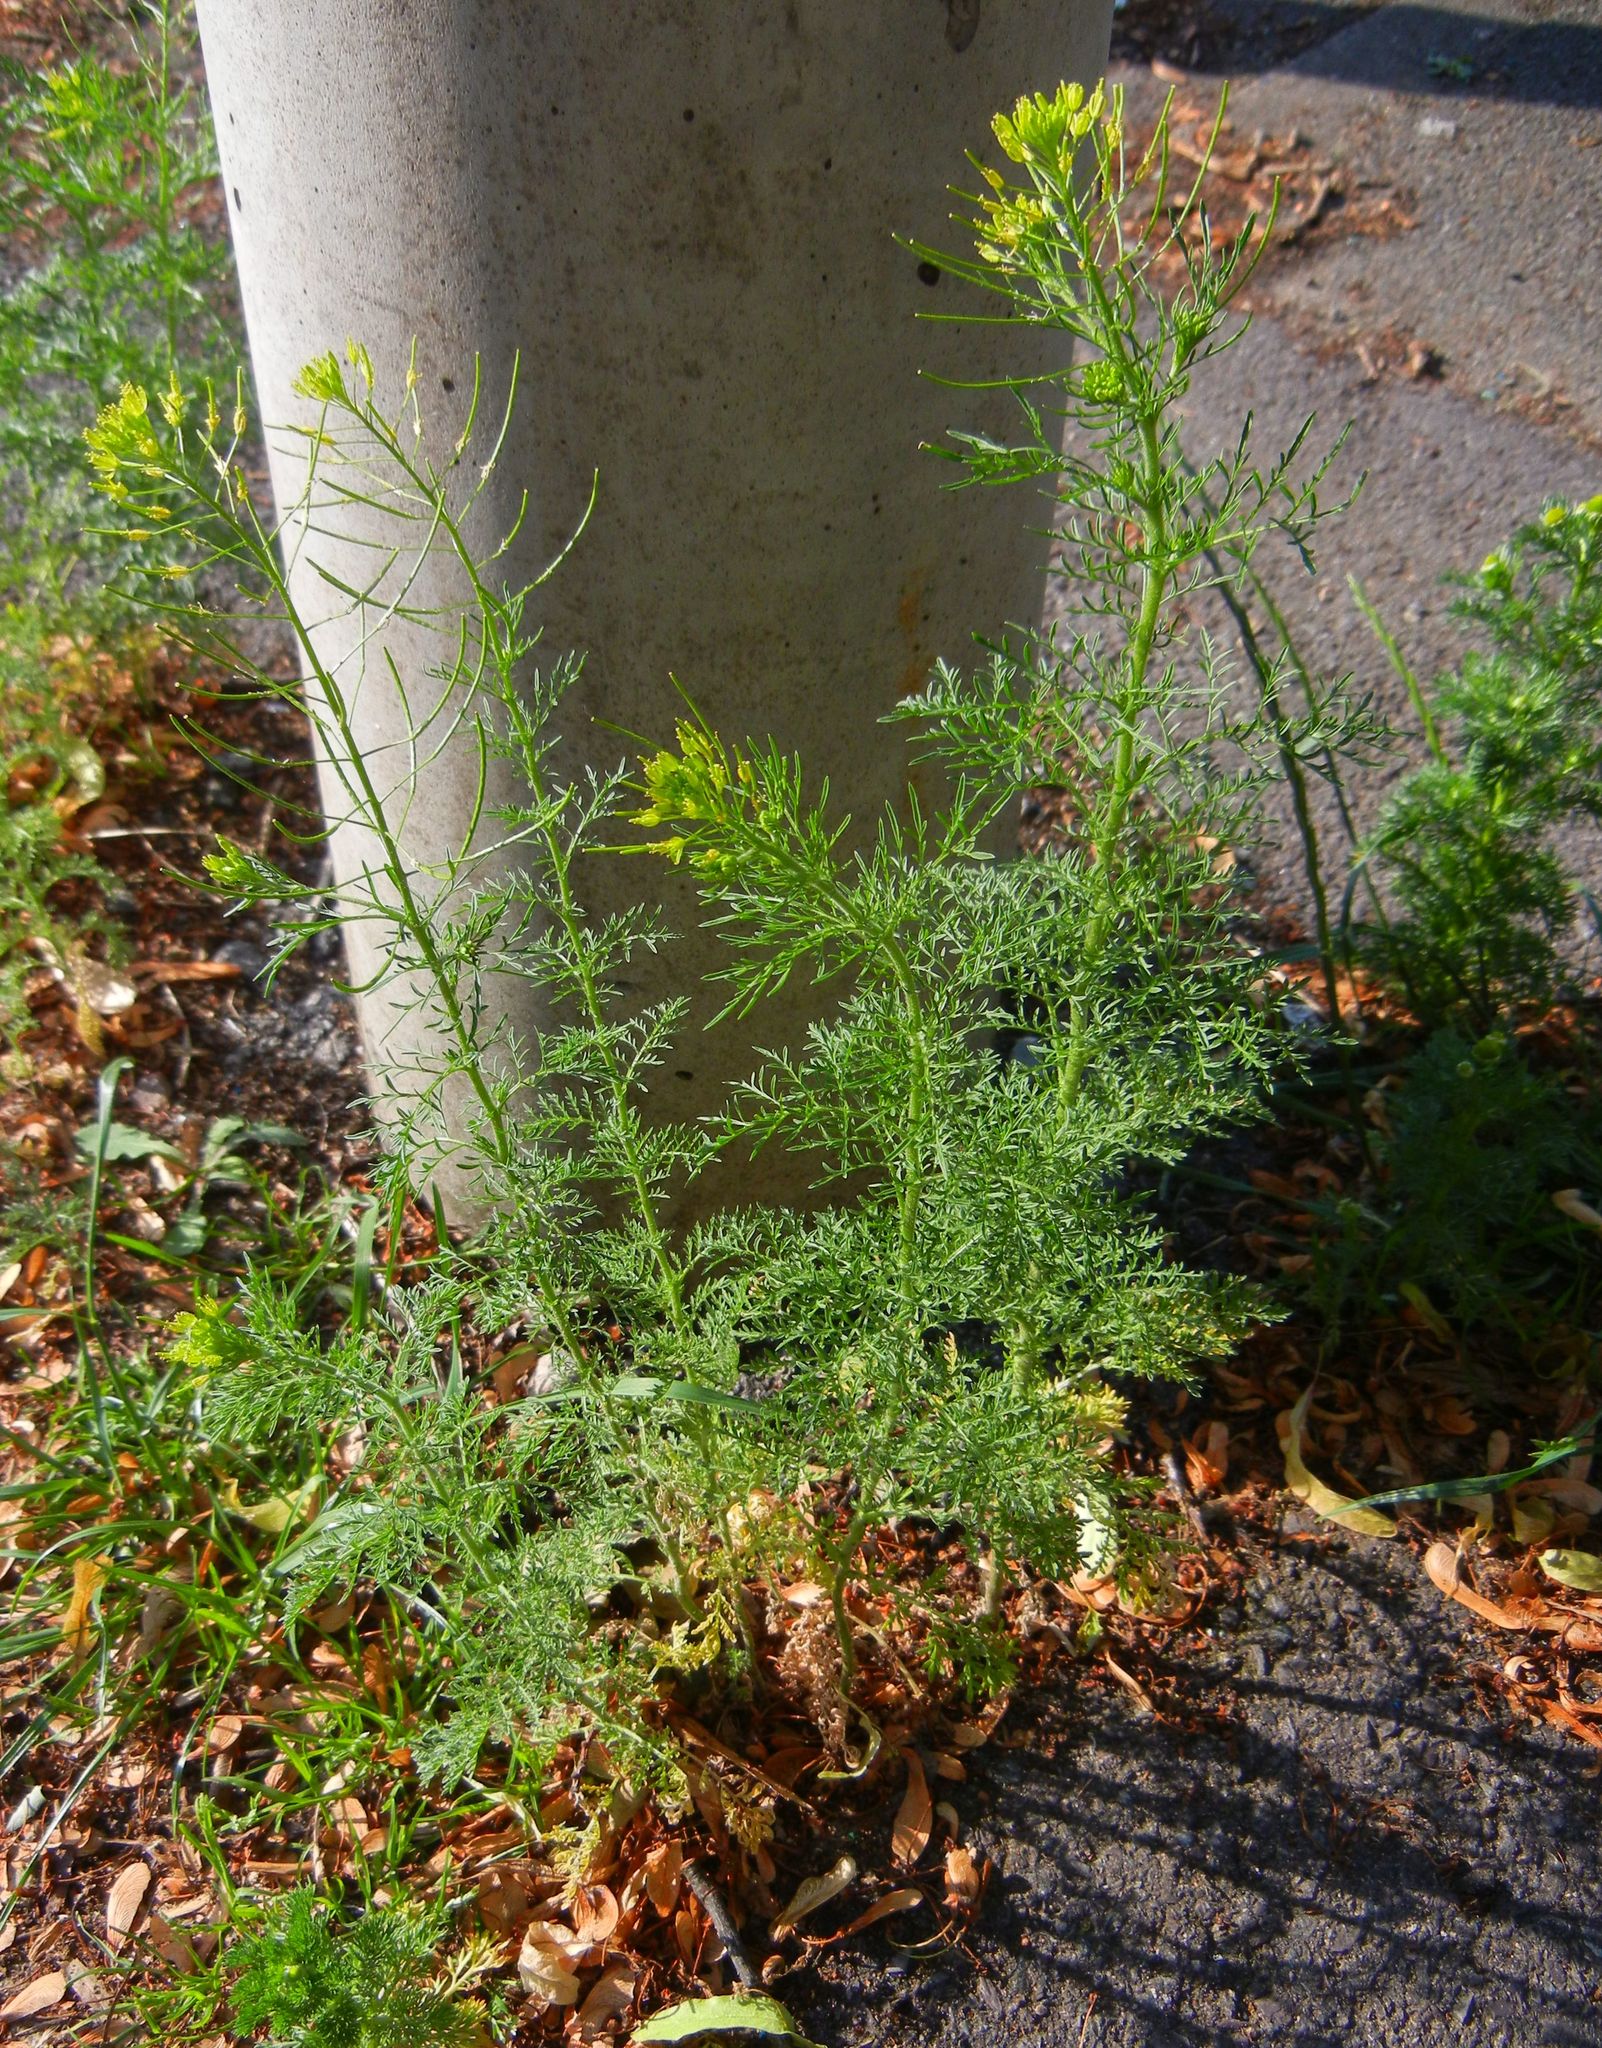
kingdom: Plantae
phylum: Tracheophyta
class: Magnoliopsida
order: Brassicales
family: Brassicaceae
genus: Descurainia
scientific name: Descurainia sophia
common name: Flixweed
